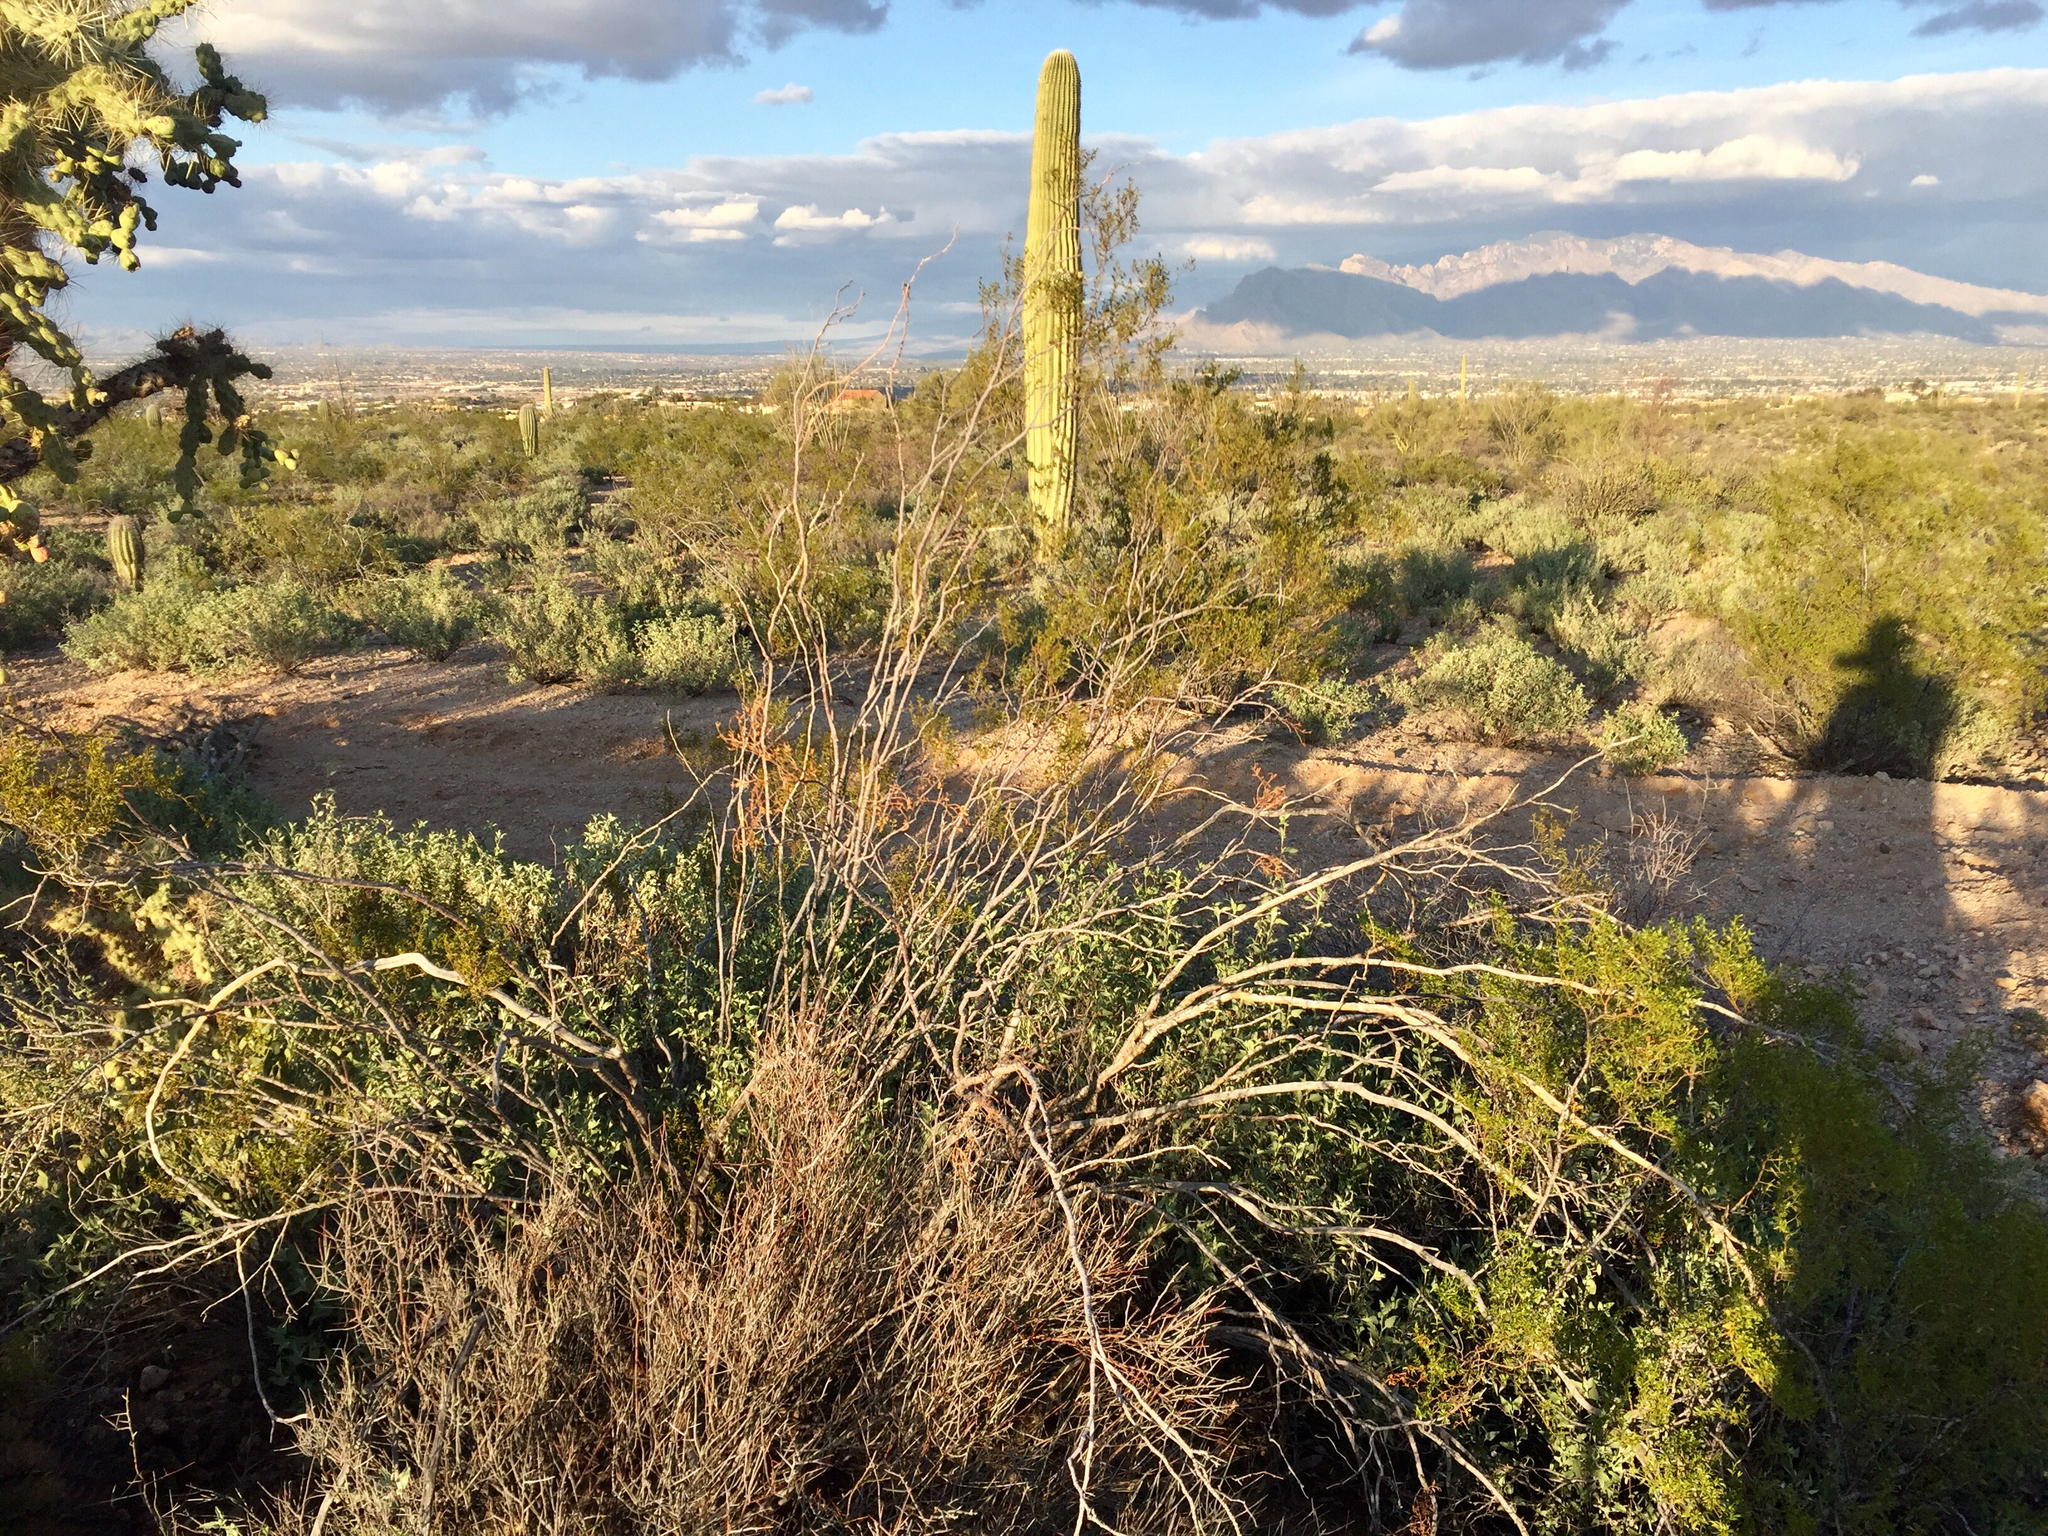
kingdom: Plantae
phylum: Tracheophyta
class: Magnoliopsida
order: Zygophyllales
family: Zygophyllaceae
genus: Larrea
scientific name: Larrea tridentata
